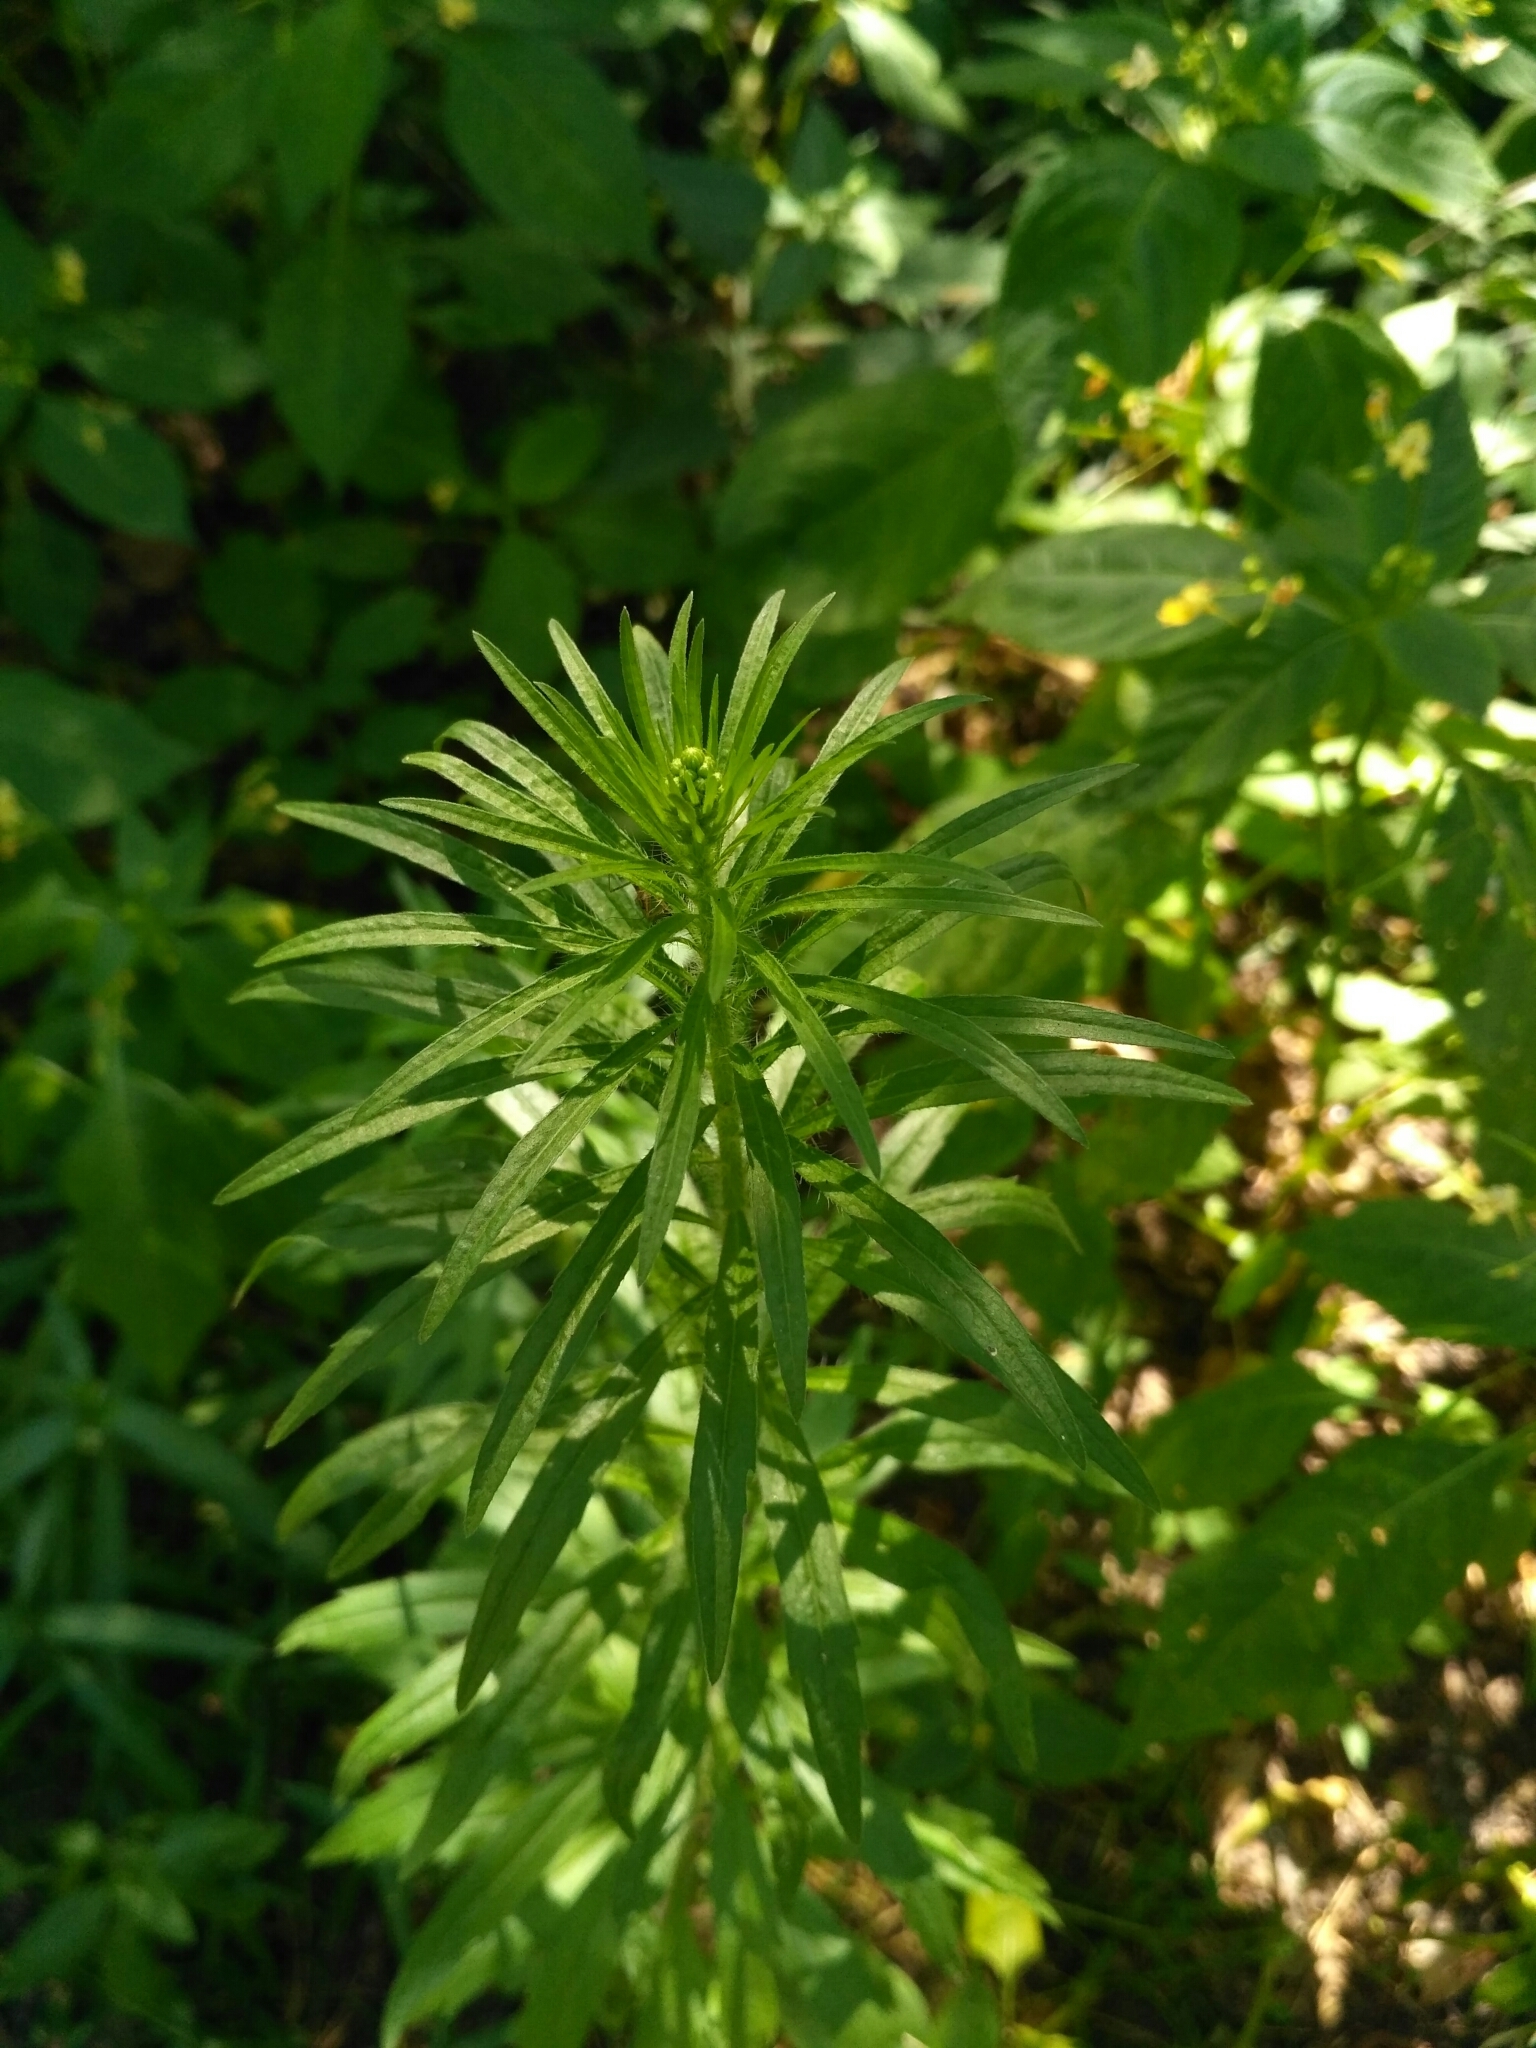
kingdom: Plantae
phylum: Tracheophyta
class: Magnoliopsida
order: Asterales
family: Asteraceae
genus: Erigeron
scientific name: Erigeron canadensis
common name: Canadian fleabane
